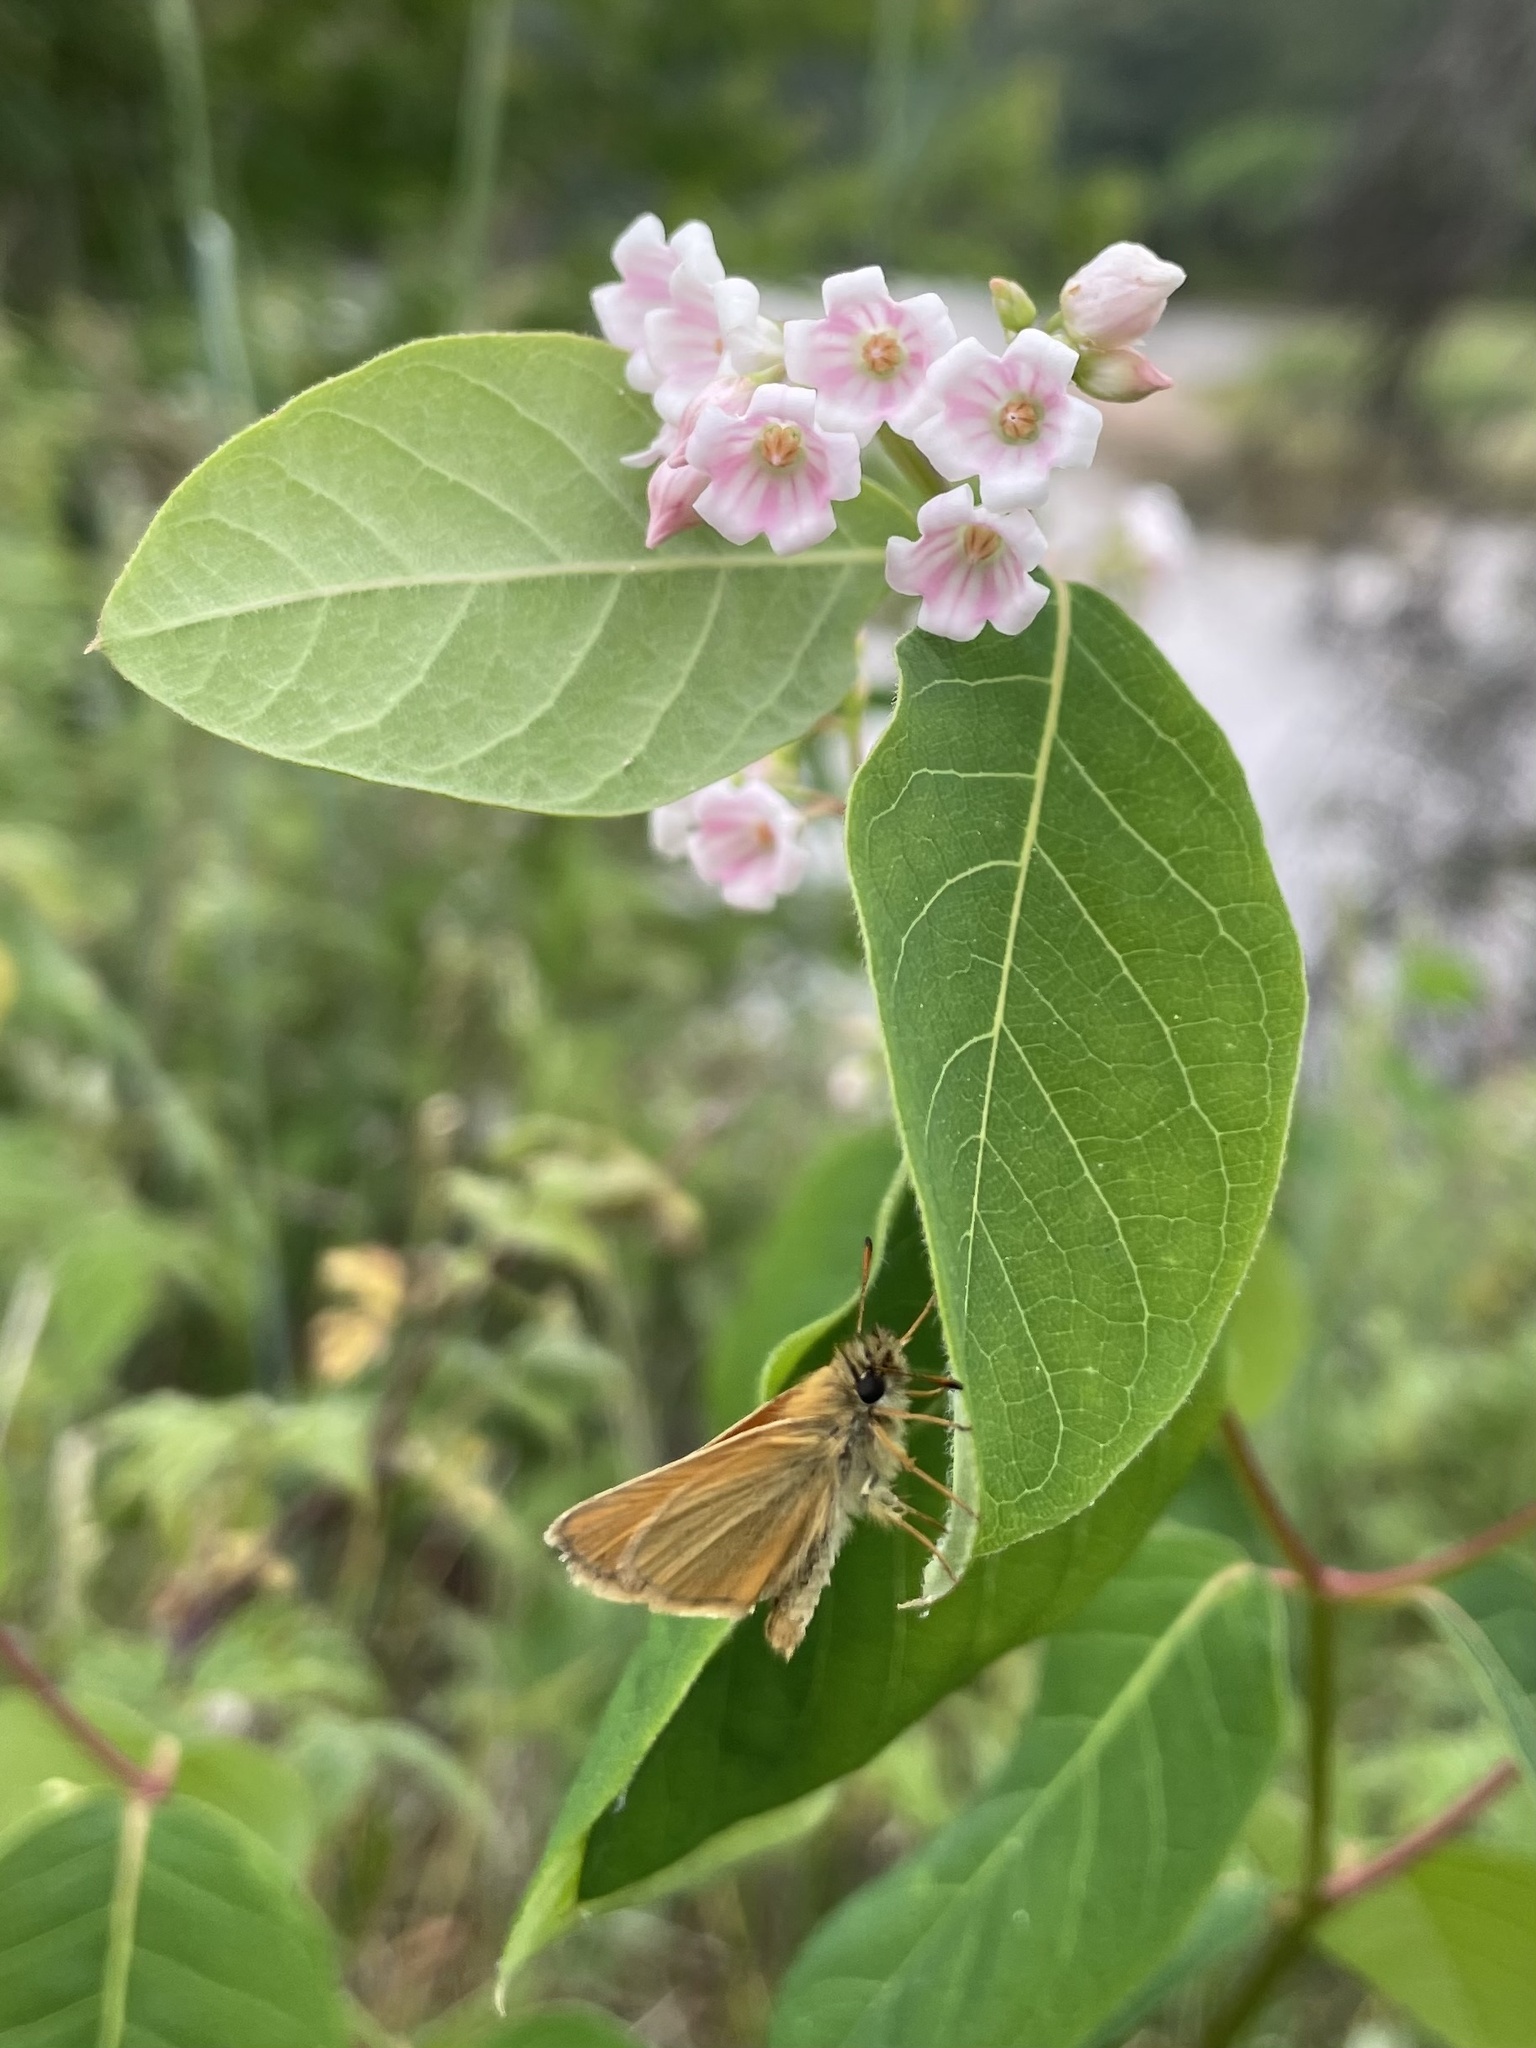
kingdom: Animalia
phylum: Arthropoda
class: Insecta
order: Lepidoptera
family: Hesperiidae
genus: Thymelicus
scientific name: Thymelicus lineola
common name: Essex skipper
